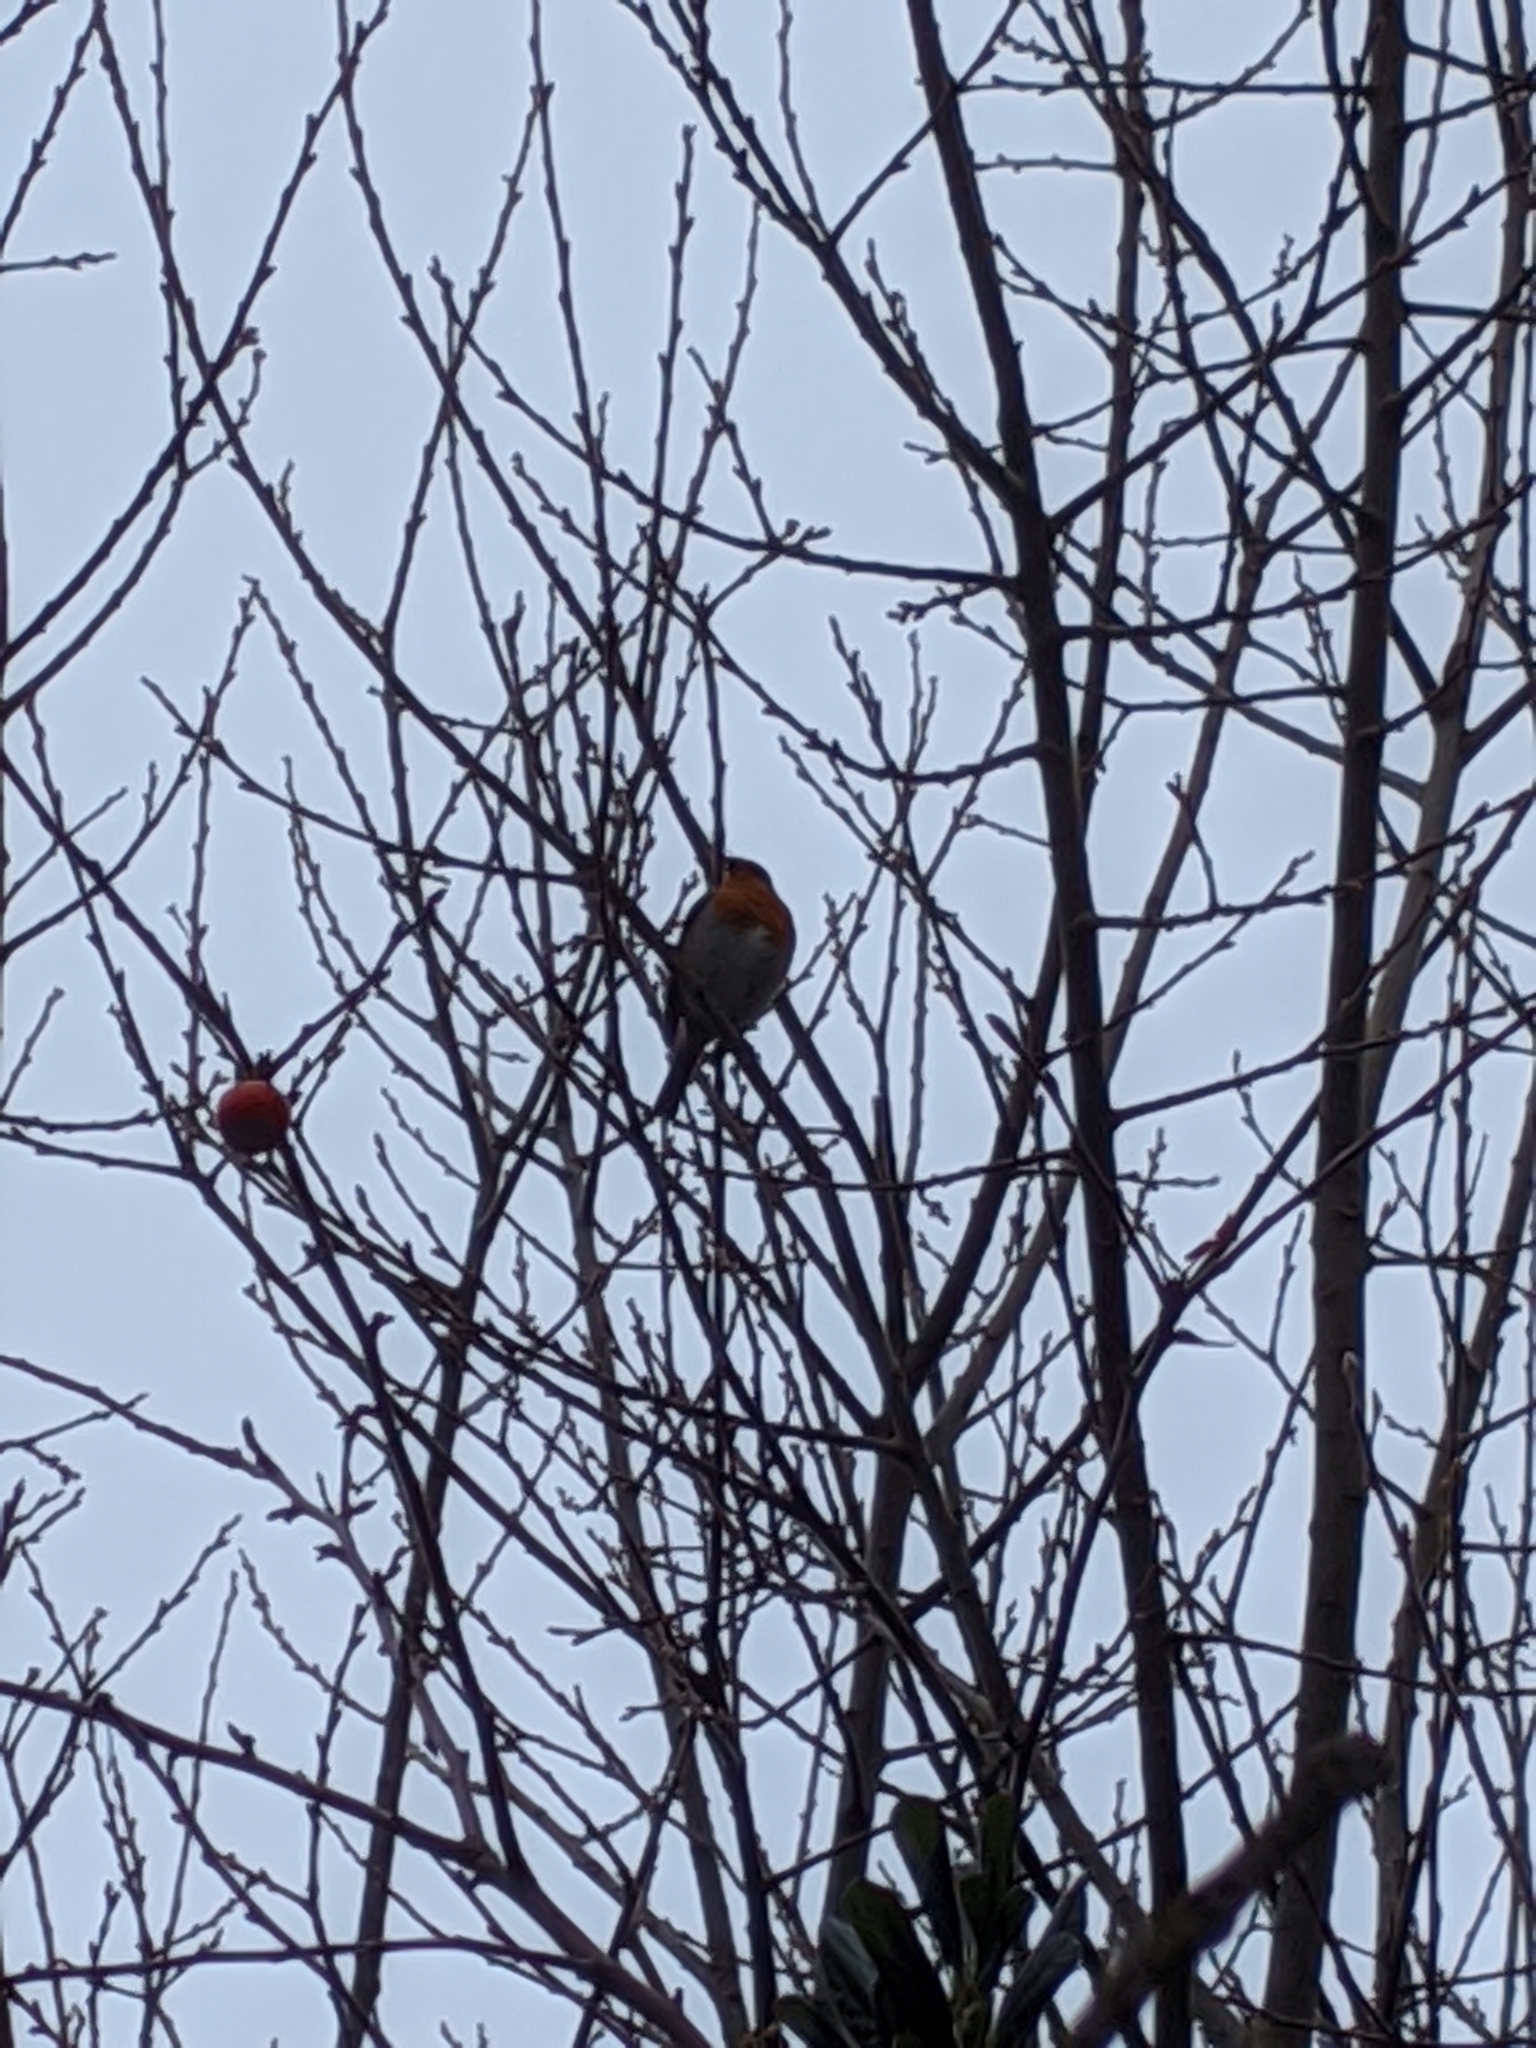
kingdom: Animalia
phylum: Chordata
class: Aves
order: Passeriformes
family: Muscicapidae
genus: Erithacus
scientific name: Erithacus rubecula
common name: European robin
